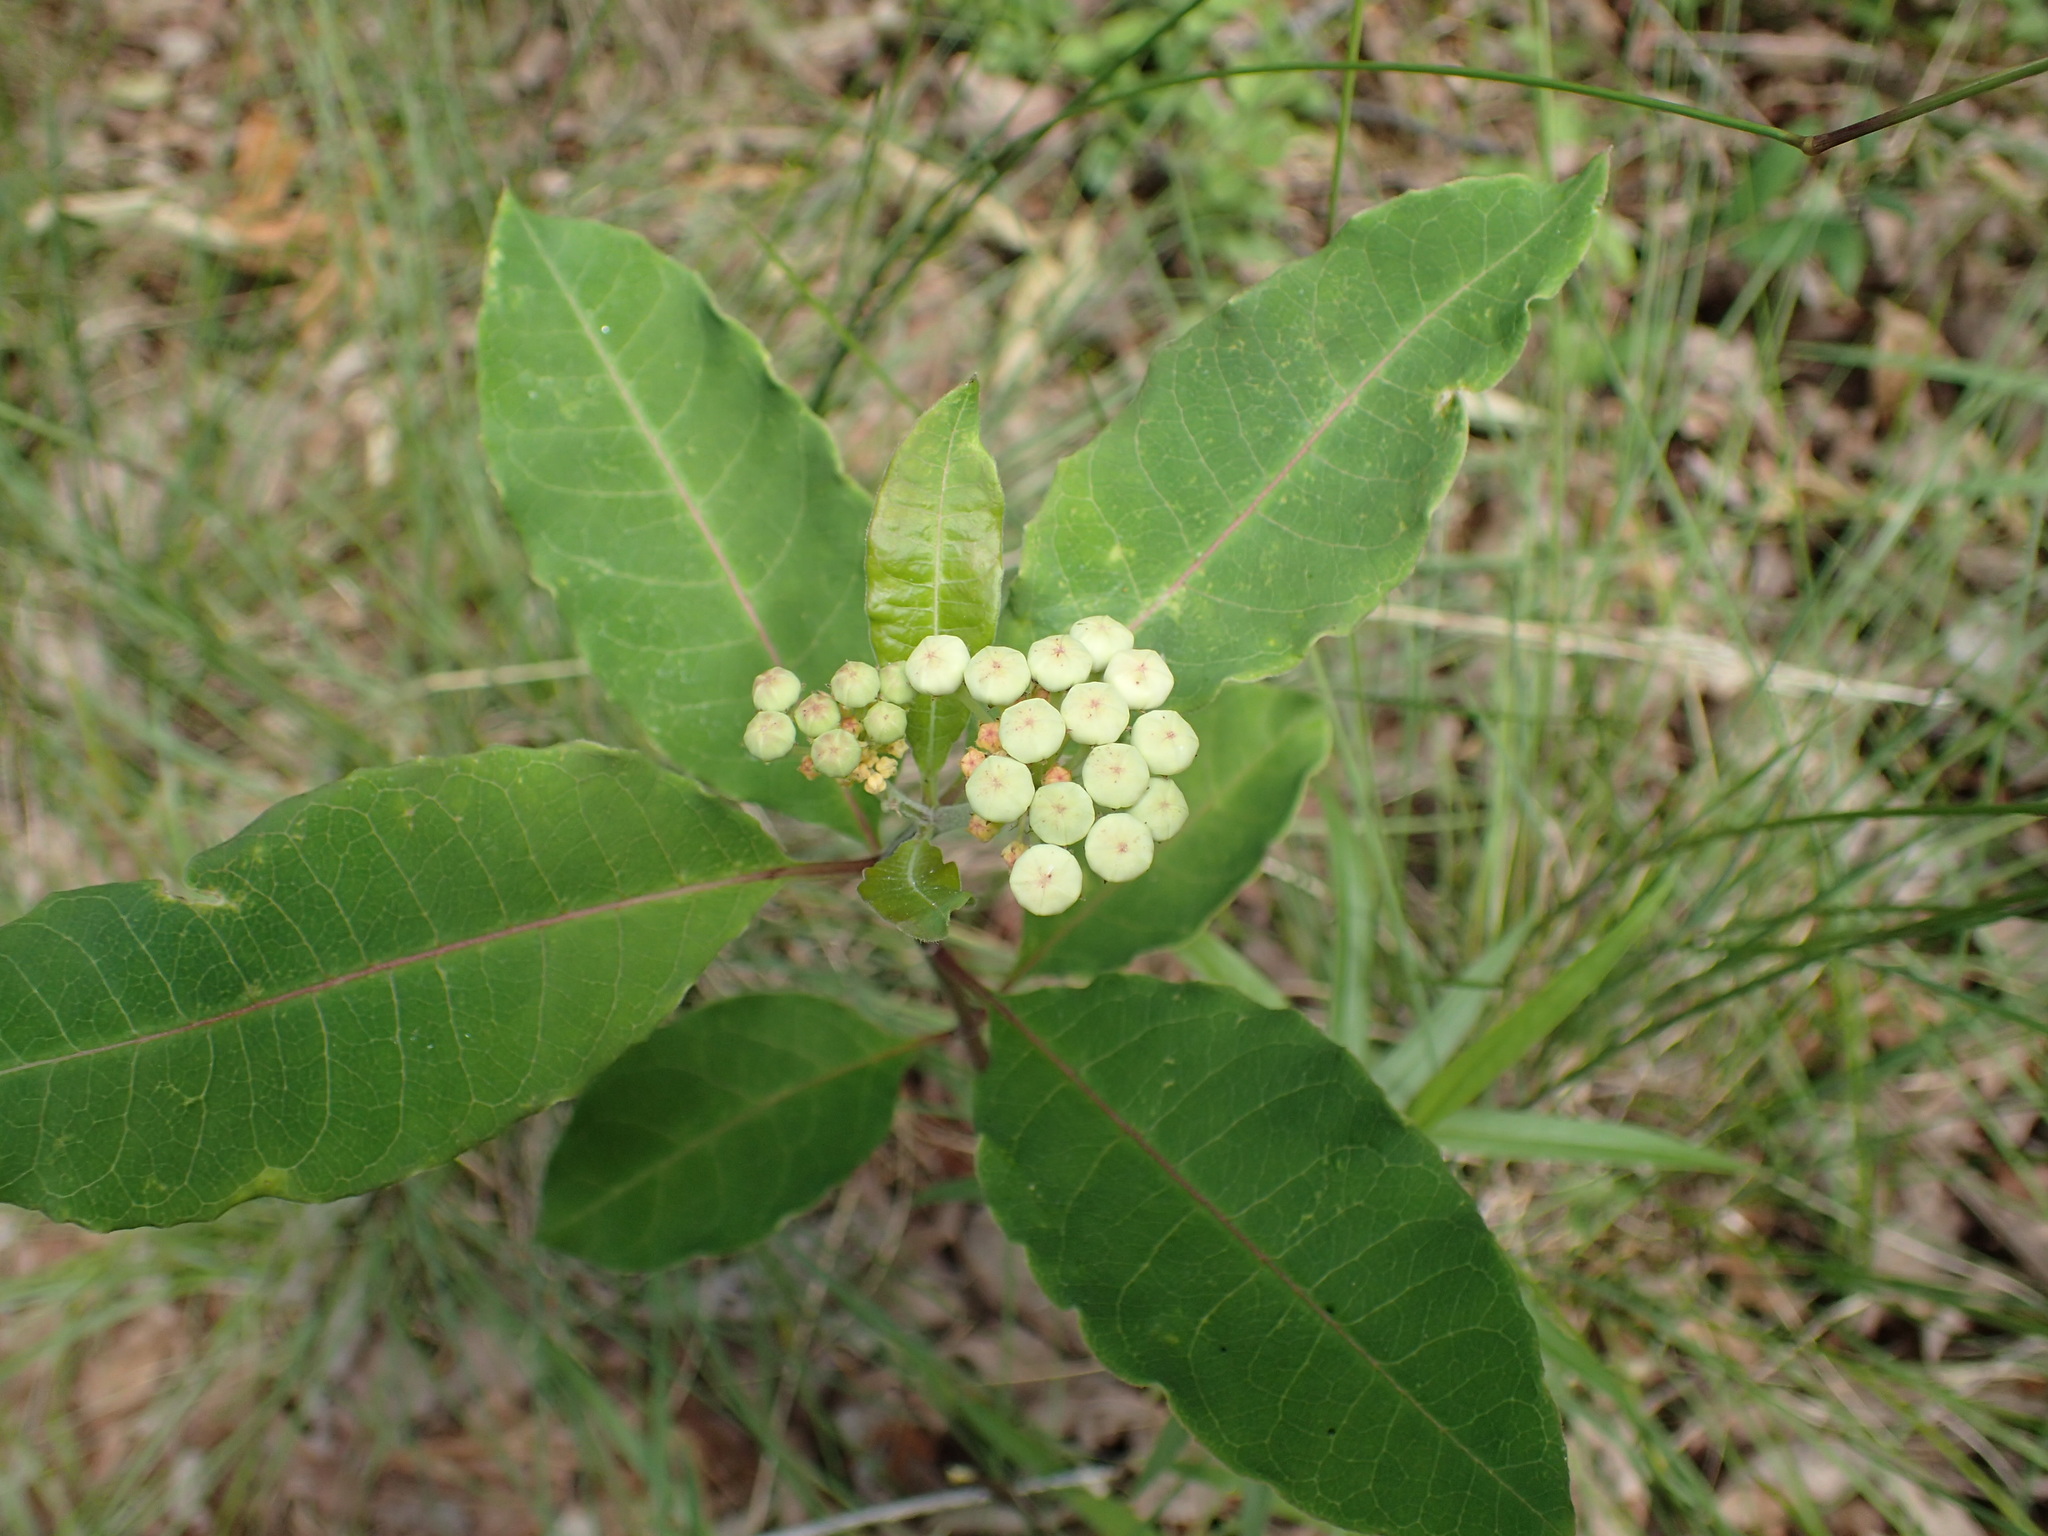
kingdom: Plantae
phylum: Tracheophyta
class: Magnoliopsida
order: Gentianales
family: Apocynaceae
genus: Asclepias
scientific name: Asclepias variegata
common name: Variegated milkweed
